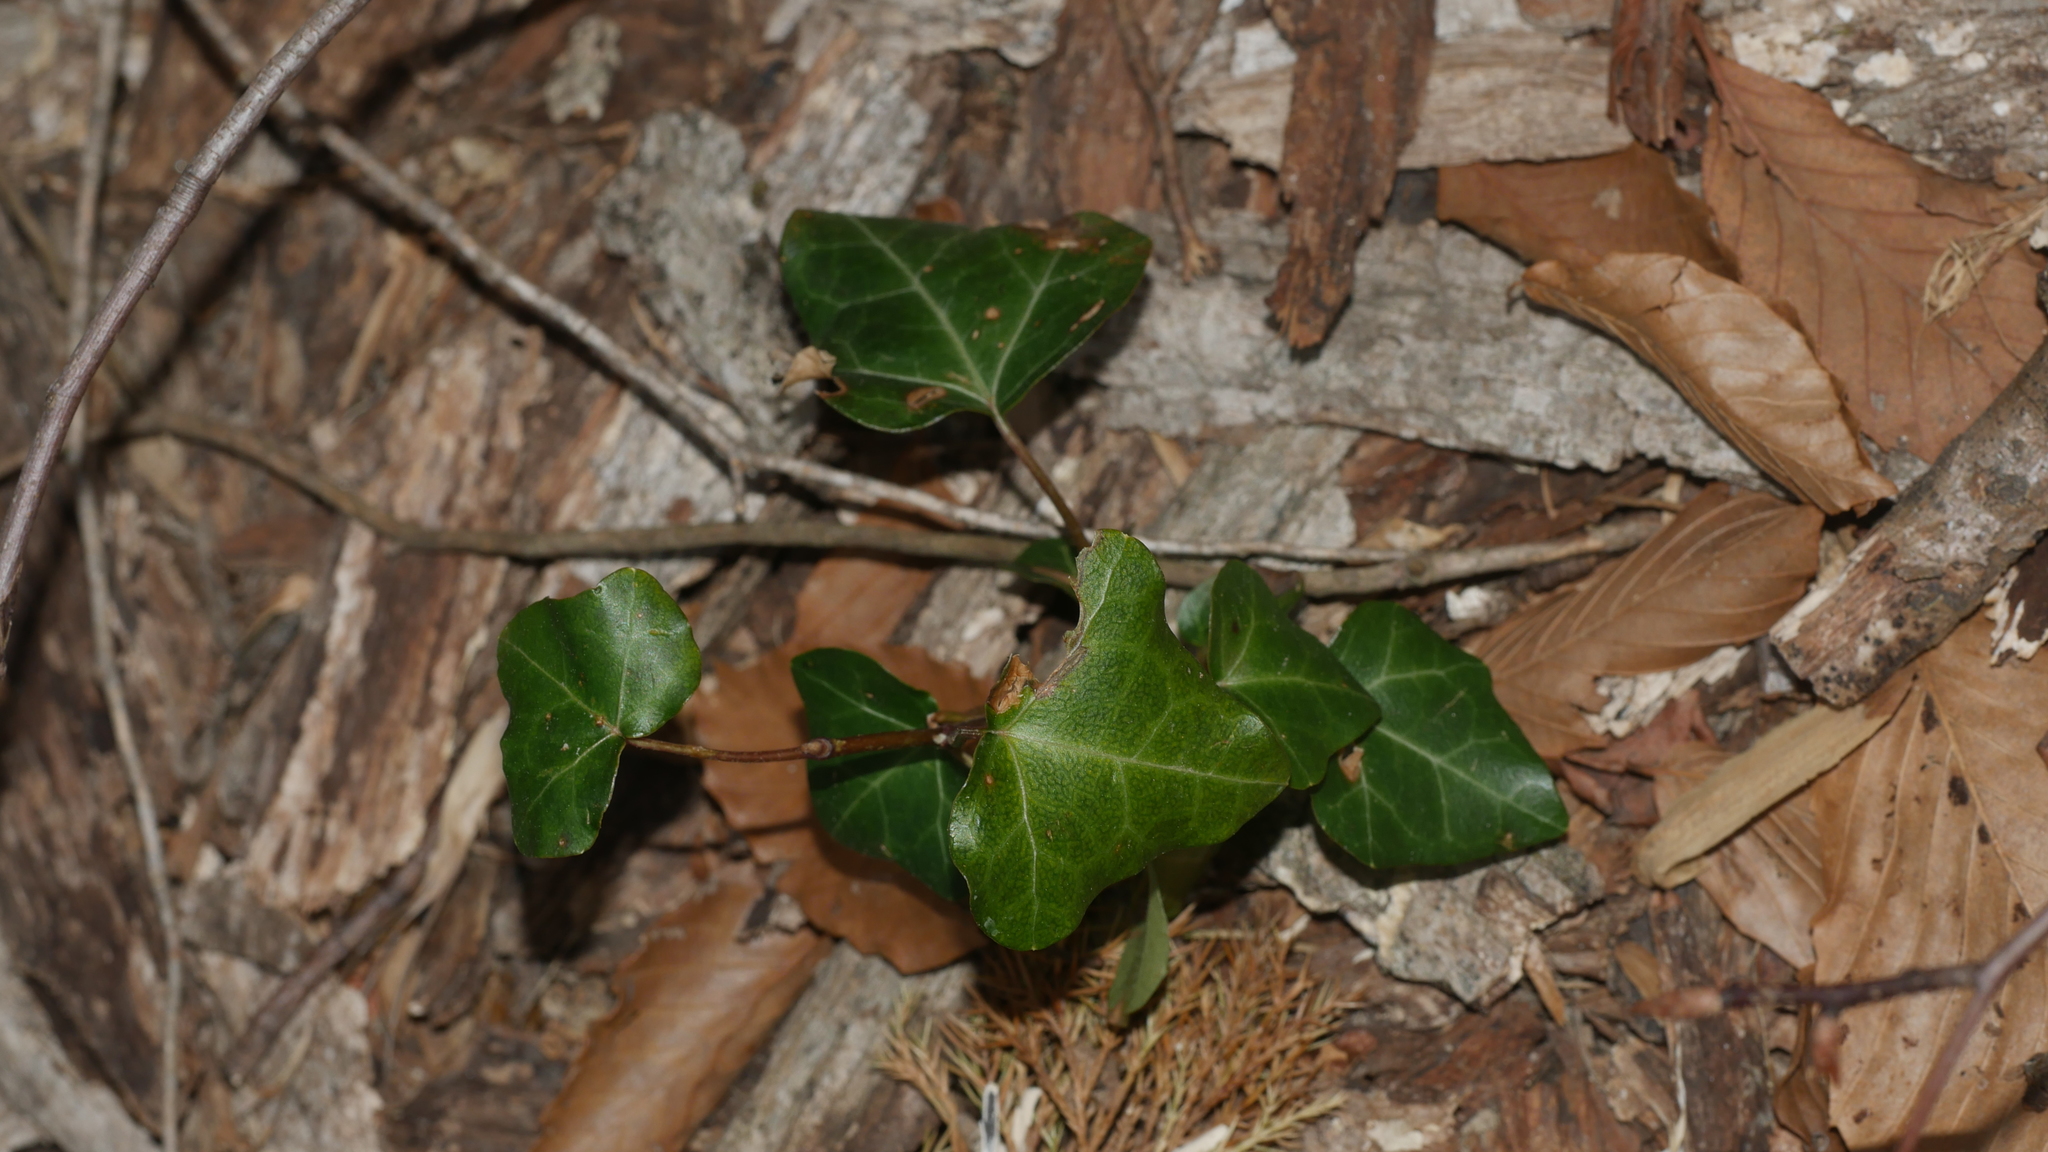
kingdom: Plantae
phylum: Tracheophyta
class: Magnoliopsida
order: Apiales
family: Araliaceae
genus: Hedera
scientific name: Hedera helix
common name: Ivy
